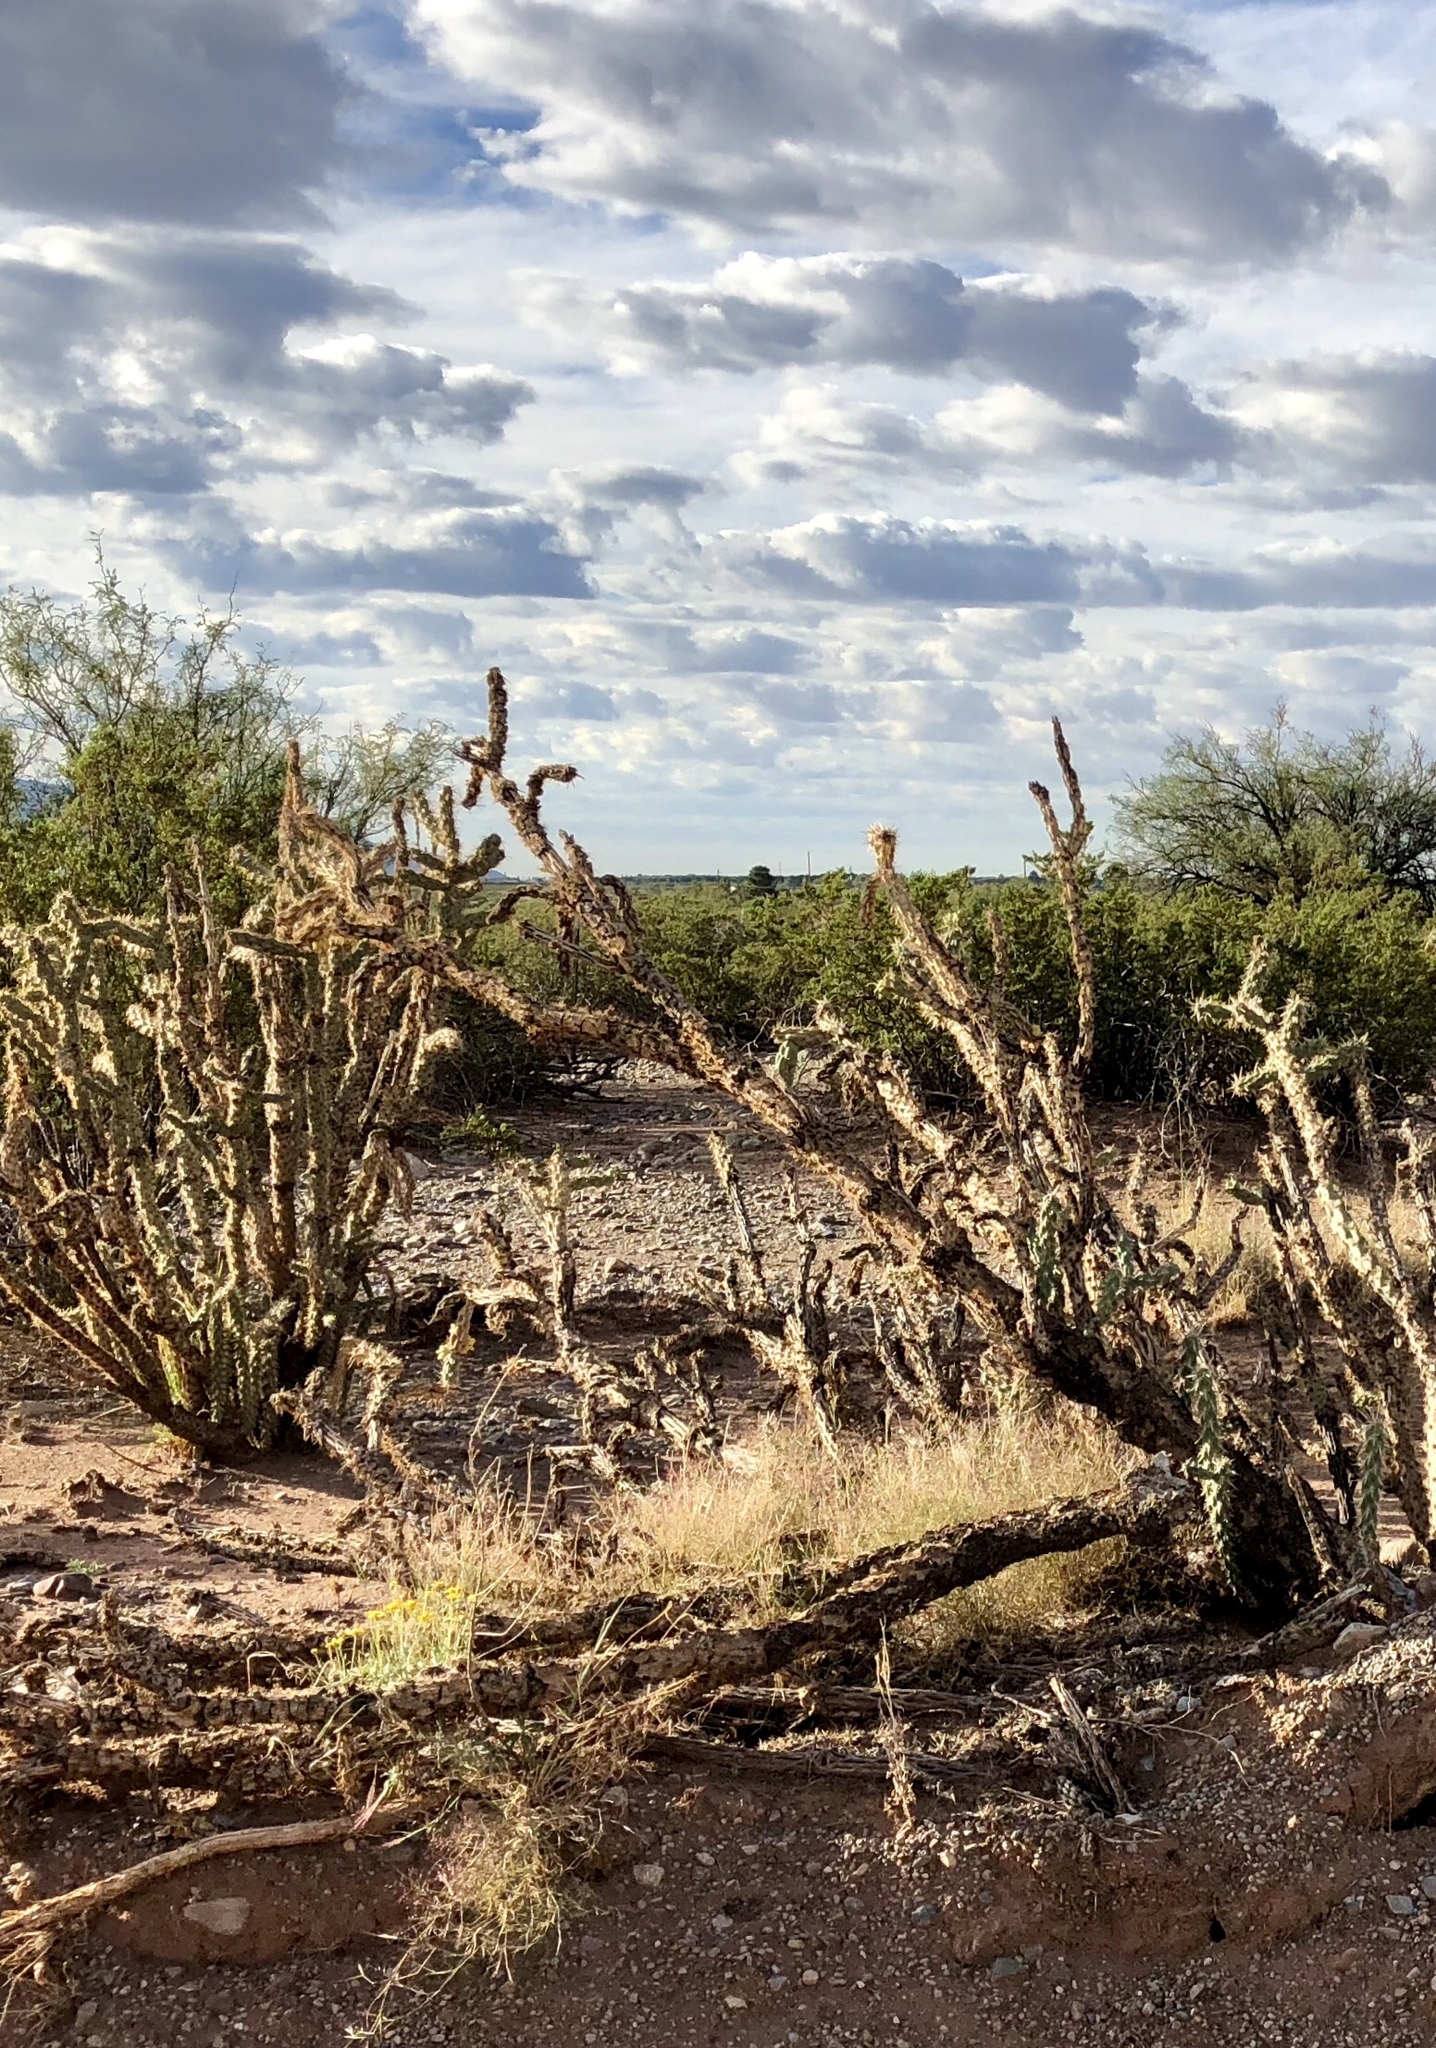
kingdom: Plantae
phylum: Tracheophyta
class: Magnoliopsida
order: Caryophyllales
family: Cactaceae
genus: Cylindropuntia
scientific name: Cylindropuntia imbricata
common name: Candelabrum cactus
